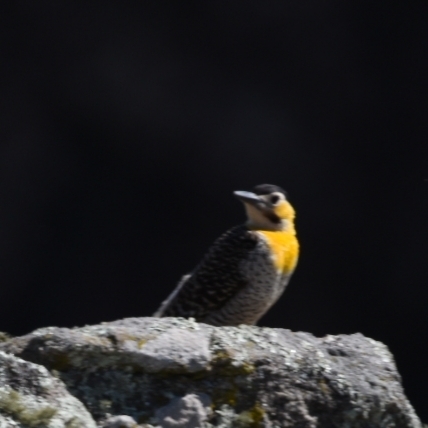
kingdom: Animalia
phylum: Chordata
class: Aves
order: Piciformes
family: Picidae
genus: Colaptes
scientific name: Colaptes campestris
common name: Campo flicker
